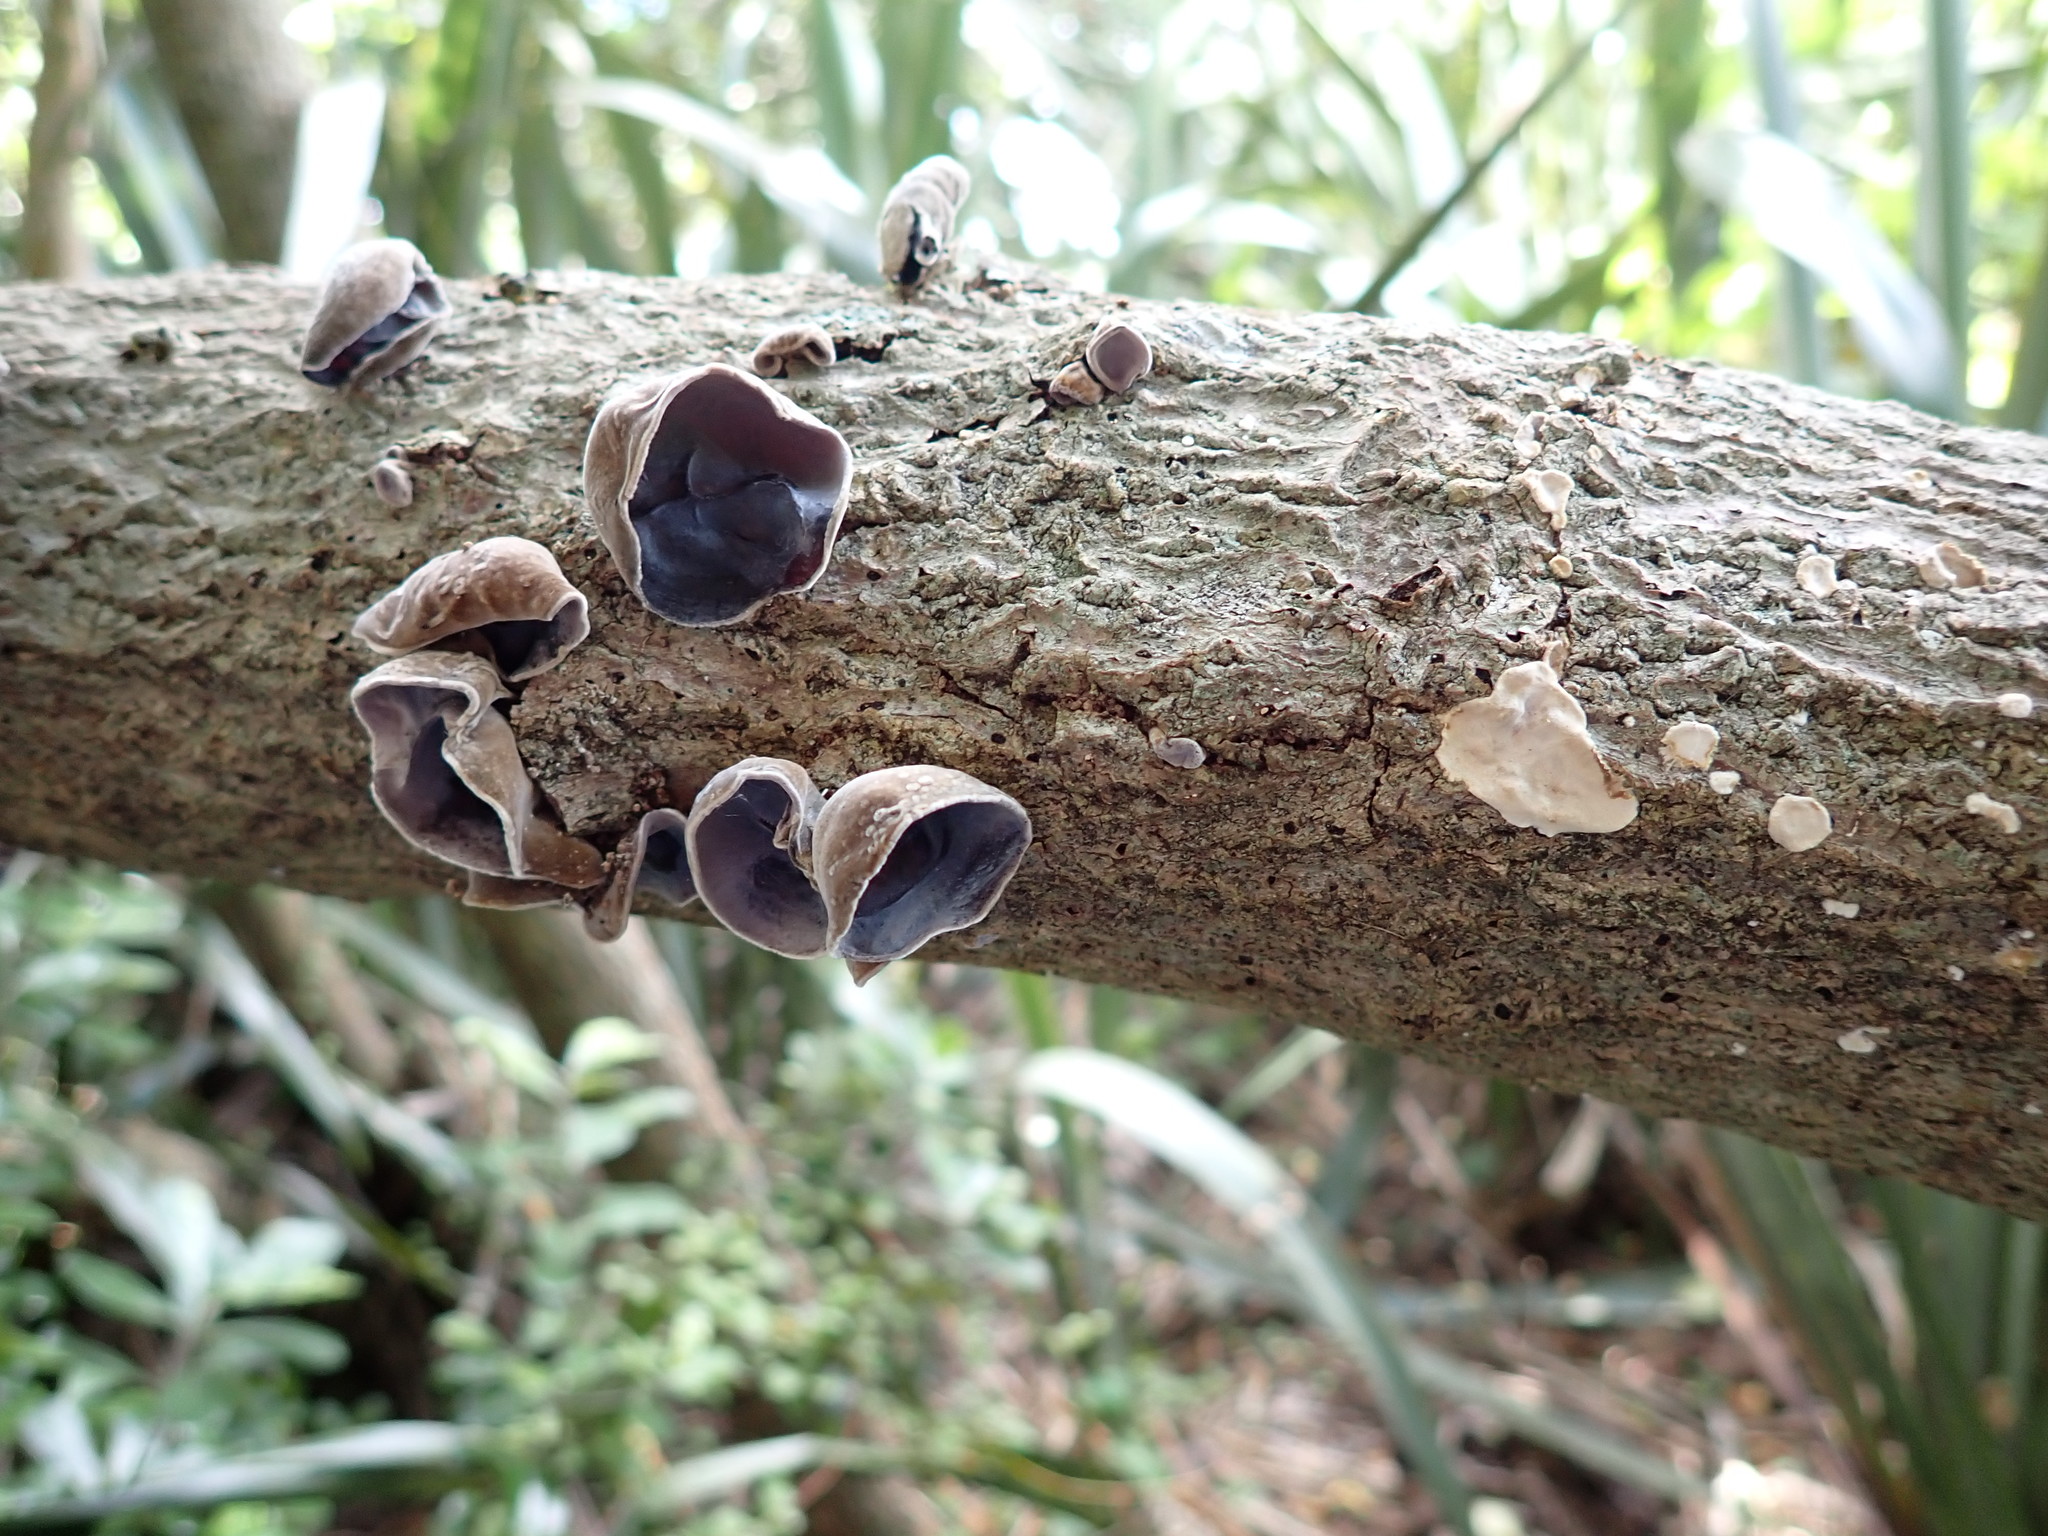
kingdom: Fungi
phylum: Basidiomycota
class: Agaricomycetes
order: Auriculariales
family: Auriculariaceae
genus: Auricularia
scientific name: Auricularia cornea
